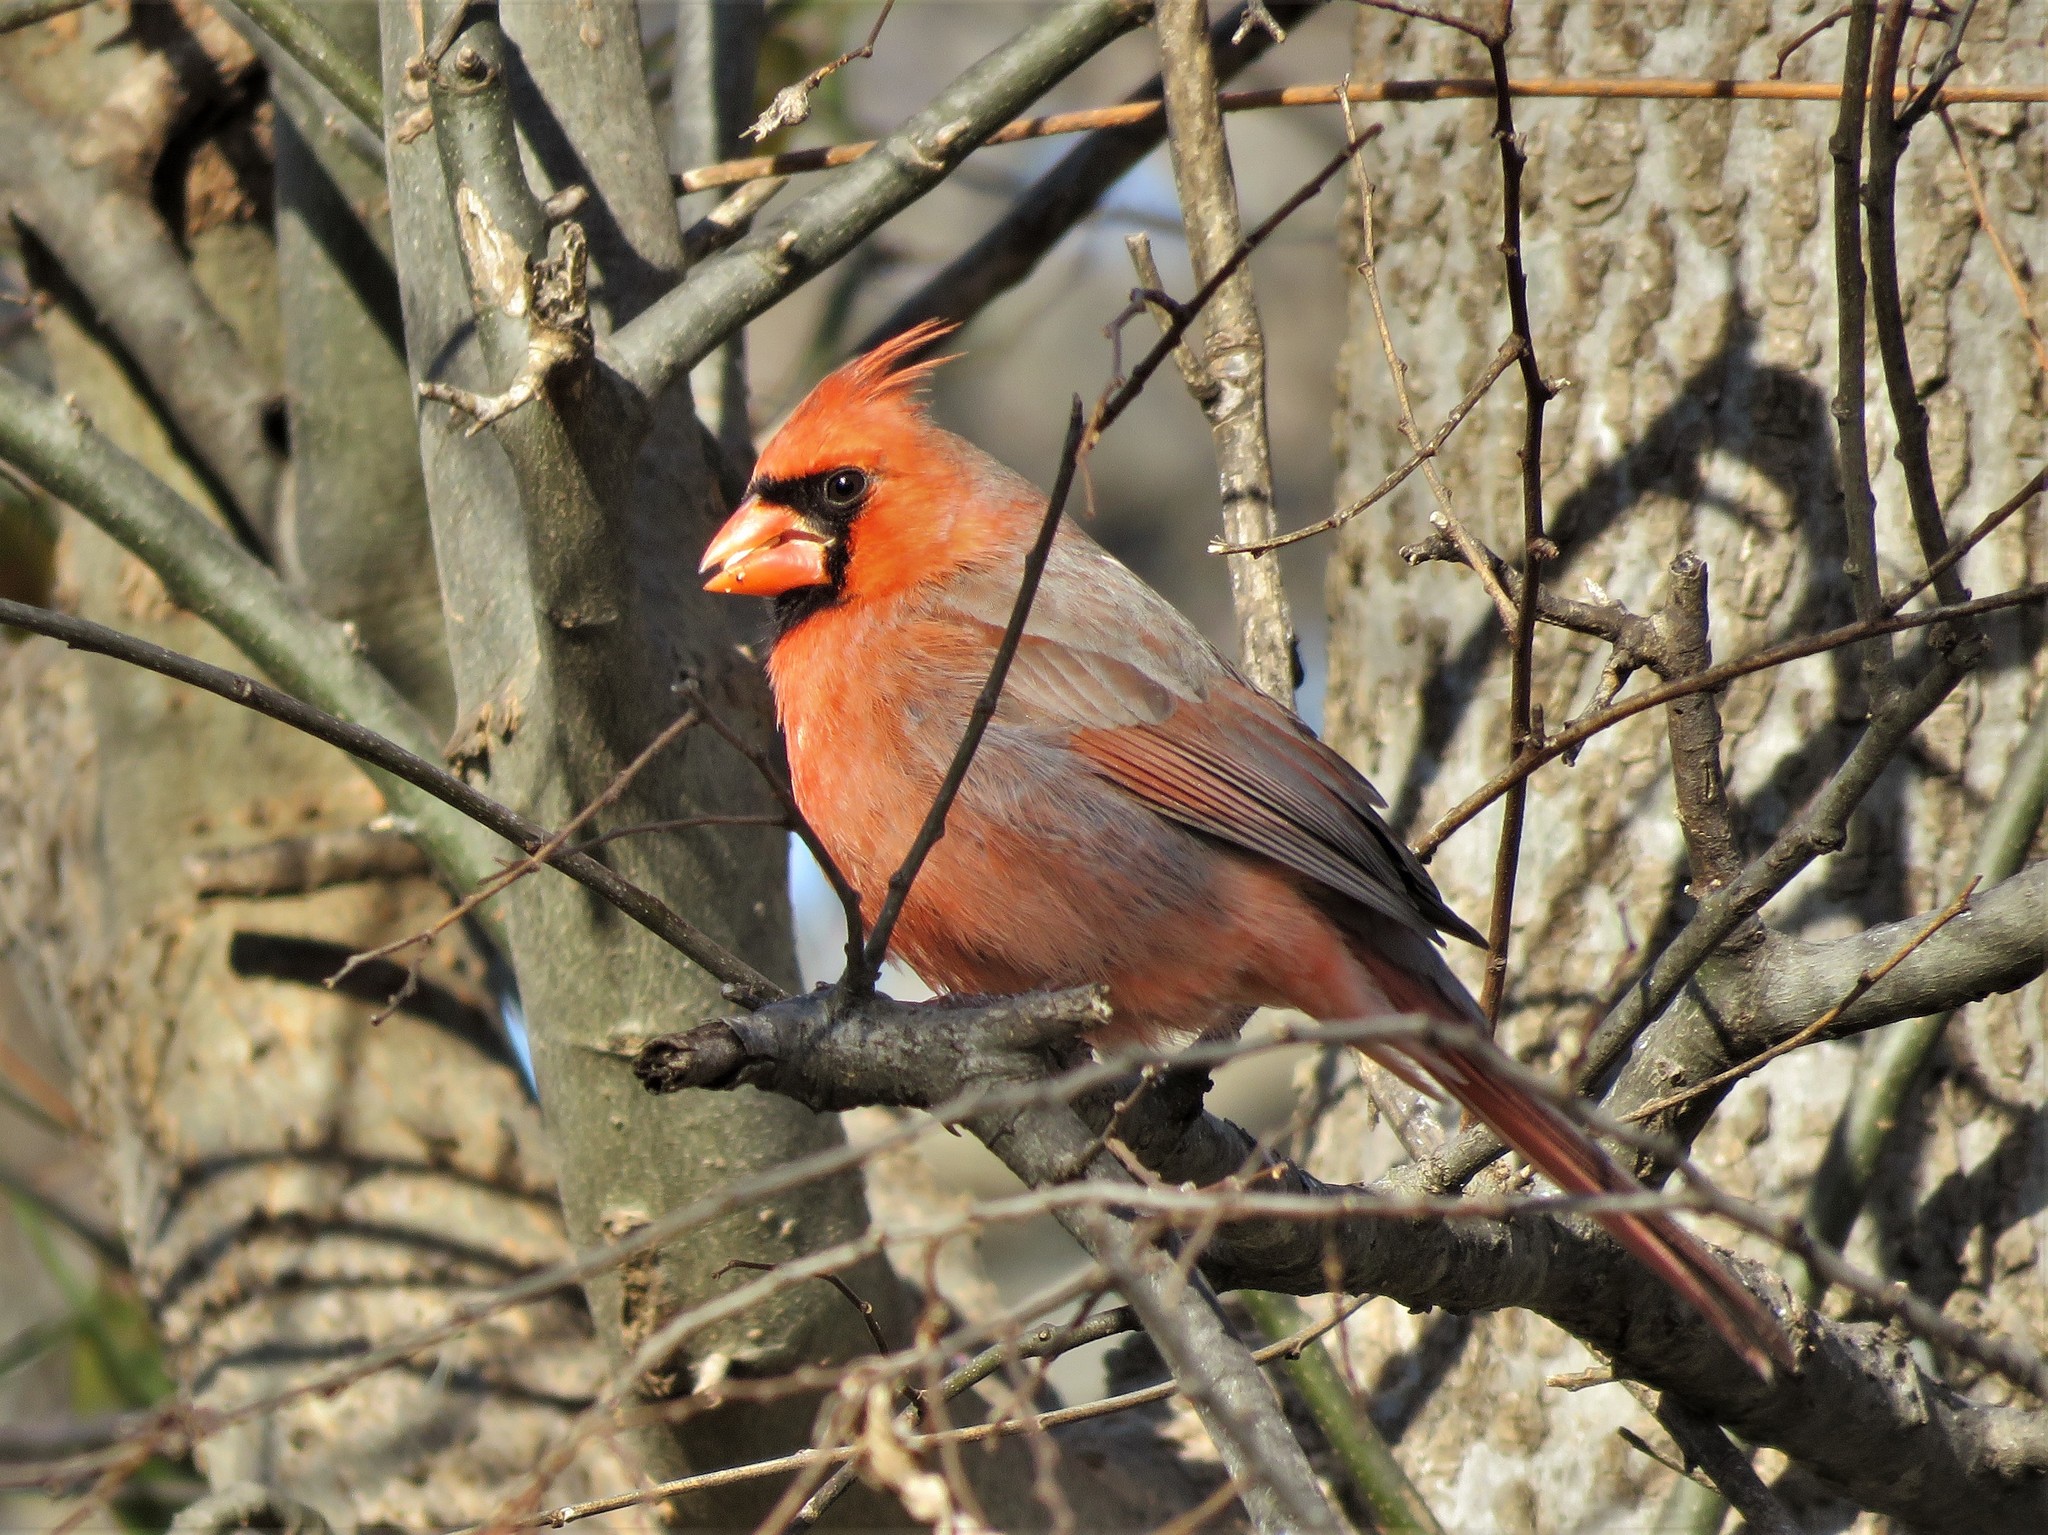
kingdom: Animalia
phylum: Chordata
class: Aves
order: Passeriformes
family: Cardinalidae
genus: Cardinalis
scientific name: Cardinalis cardinalis
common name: Northern cardinal
